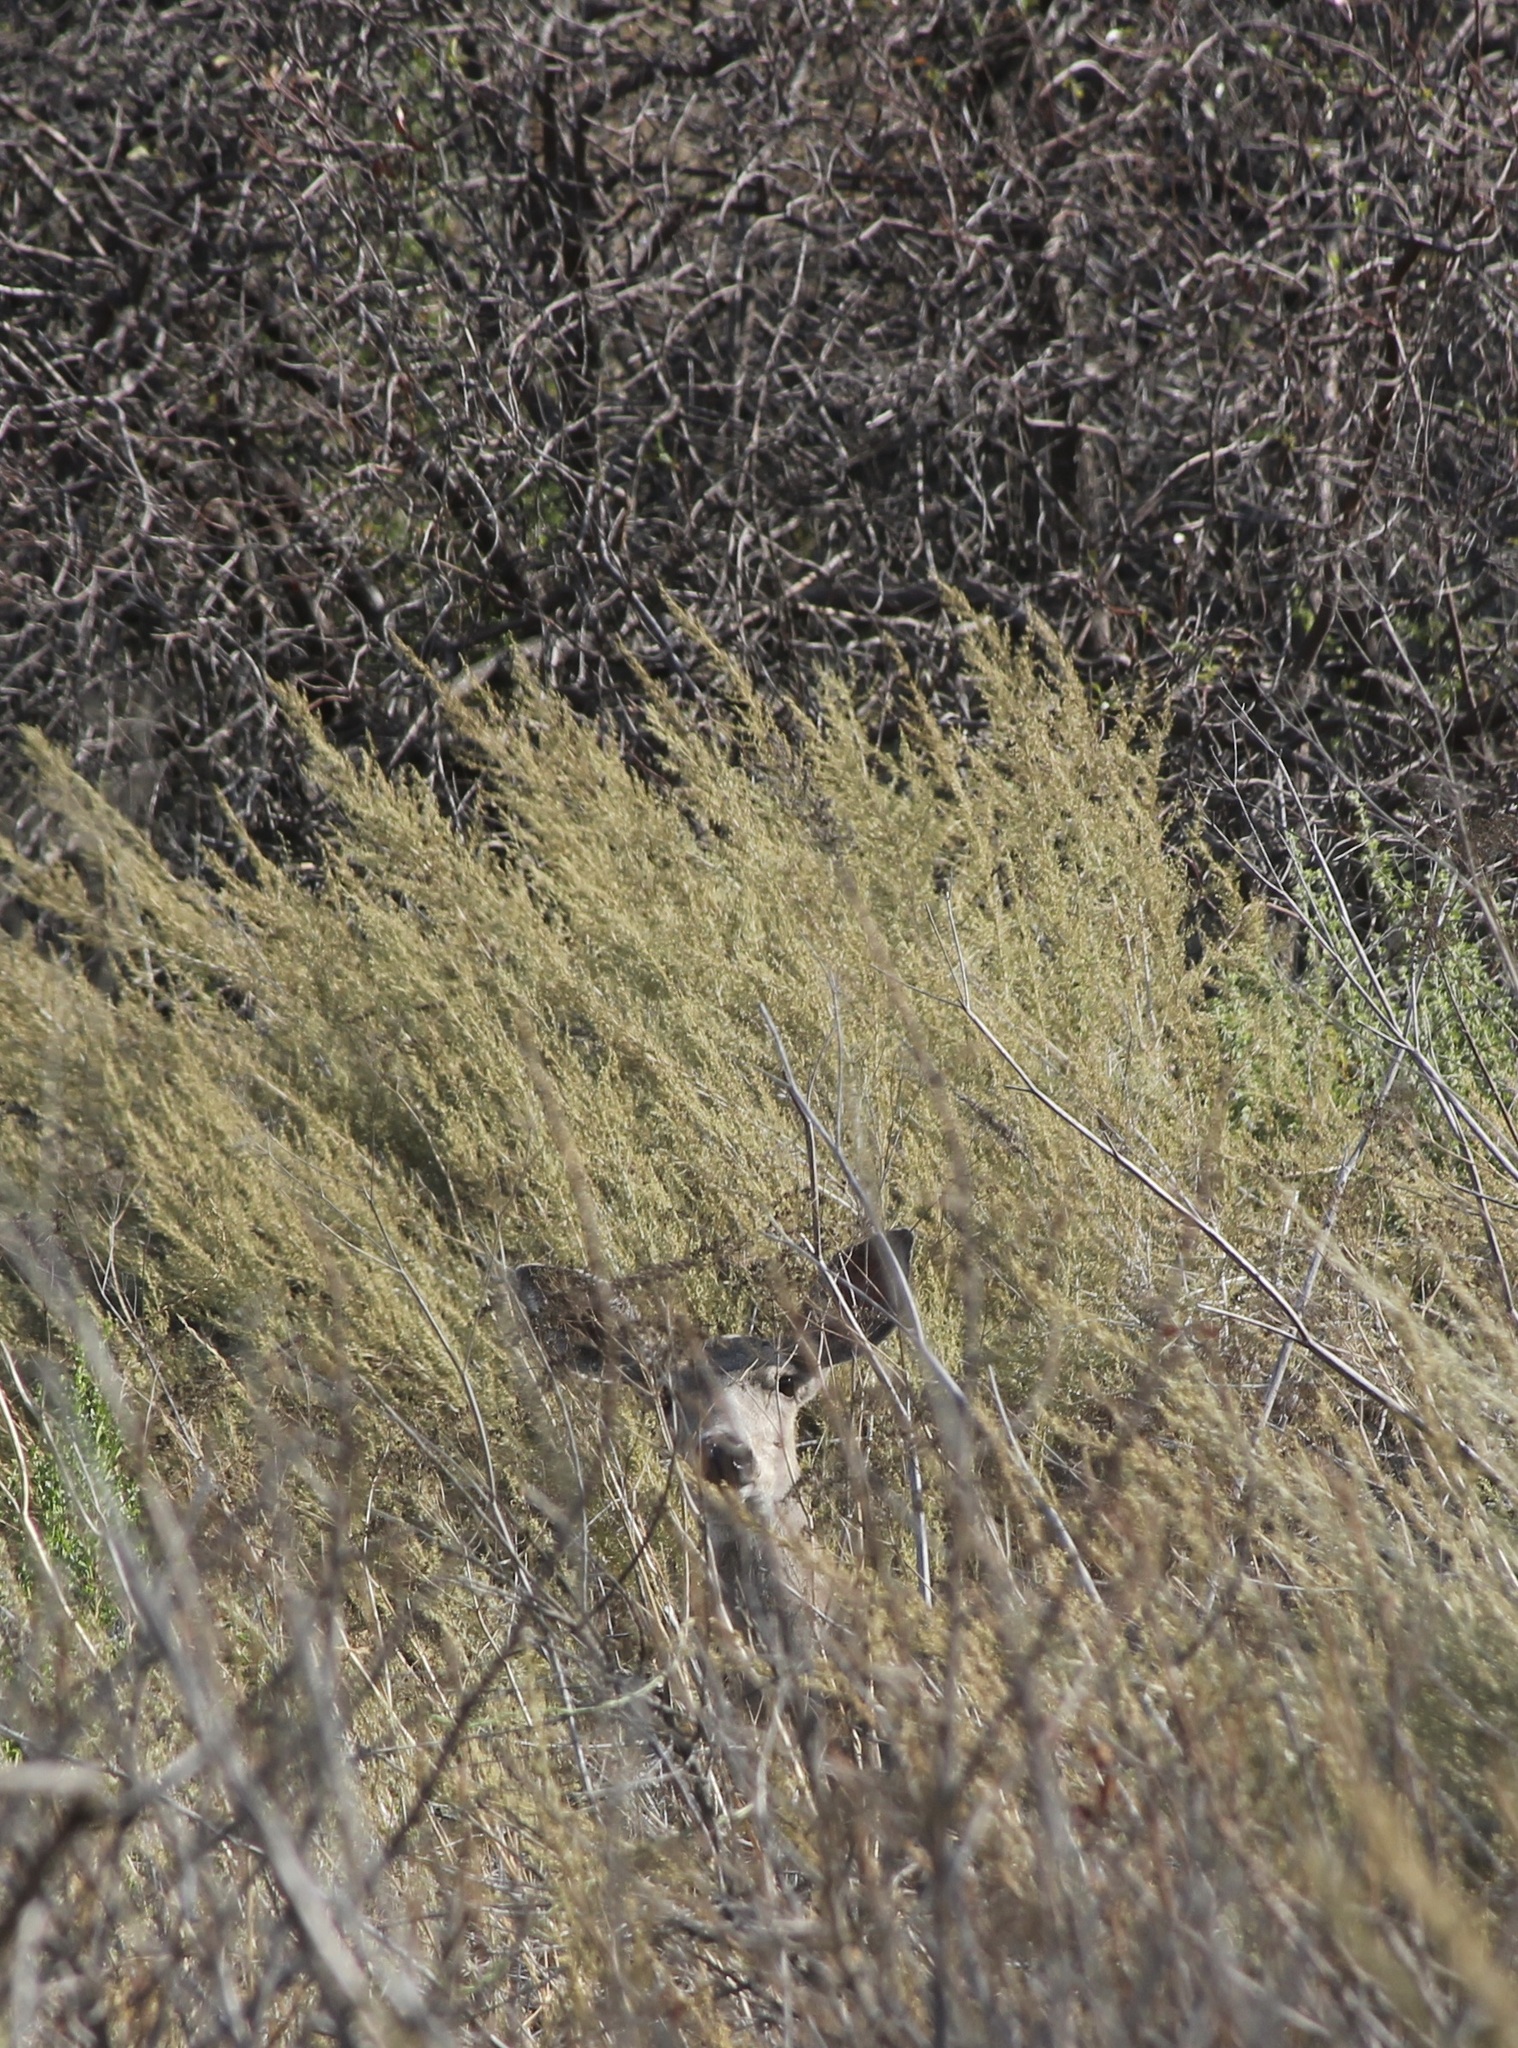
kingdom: Animalia
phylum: Chordata
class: Mammalia
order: Artiodactyla
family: Cervidae
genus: Odocoileus
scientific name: Odocoileus hemionus
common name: Mule deer
